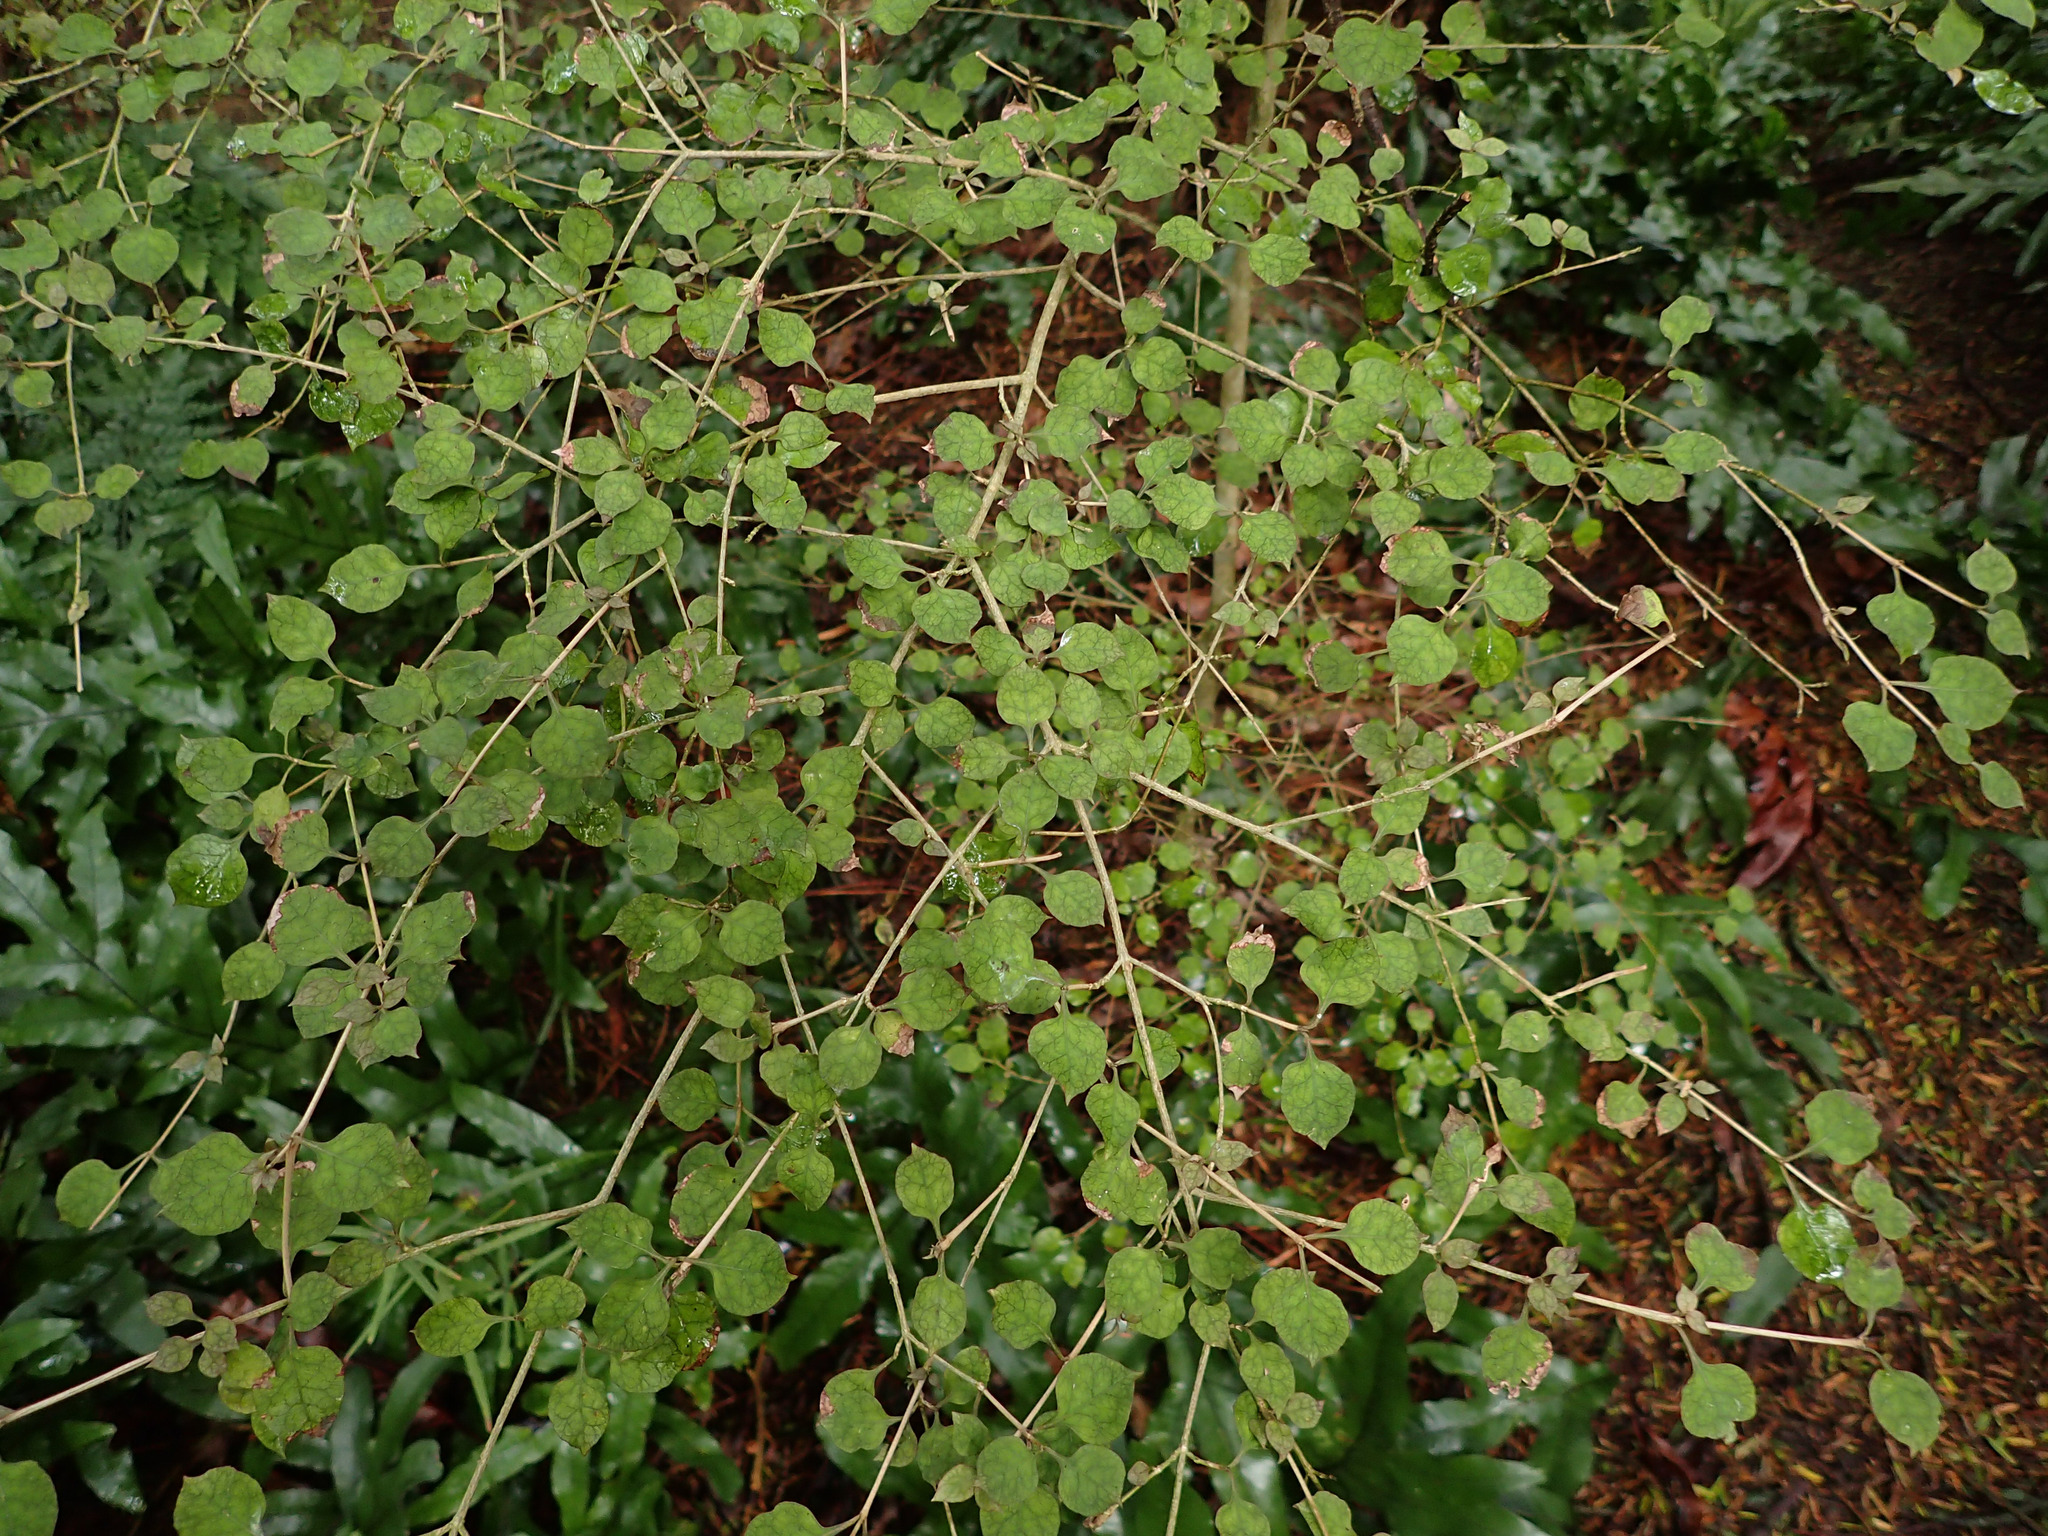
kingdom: Plantae
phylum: Tracheophyta
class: Magnoliopsida
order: Gentianales
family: Rubiaceae
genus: Coprosma
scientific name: Coprosma areolata
